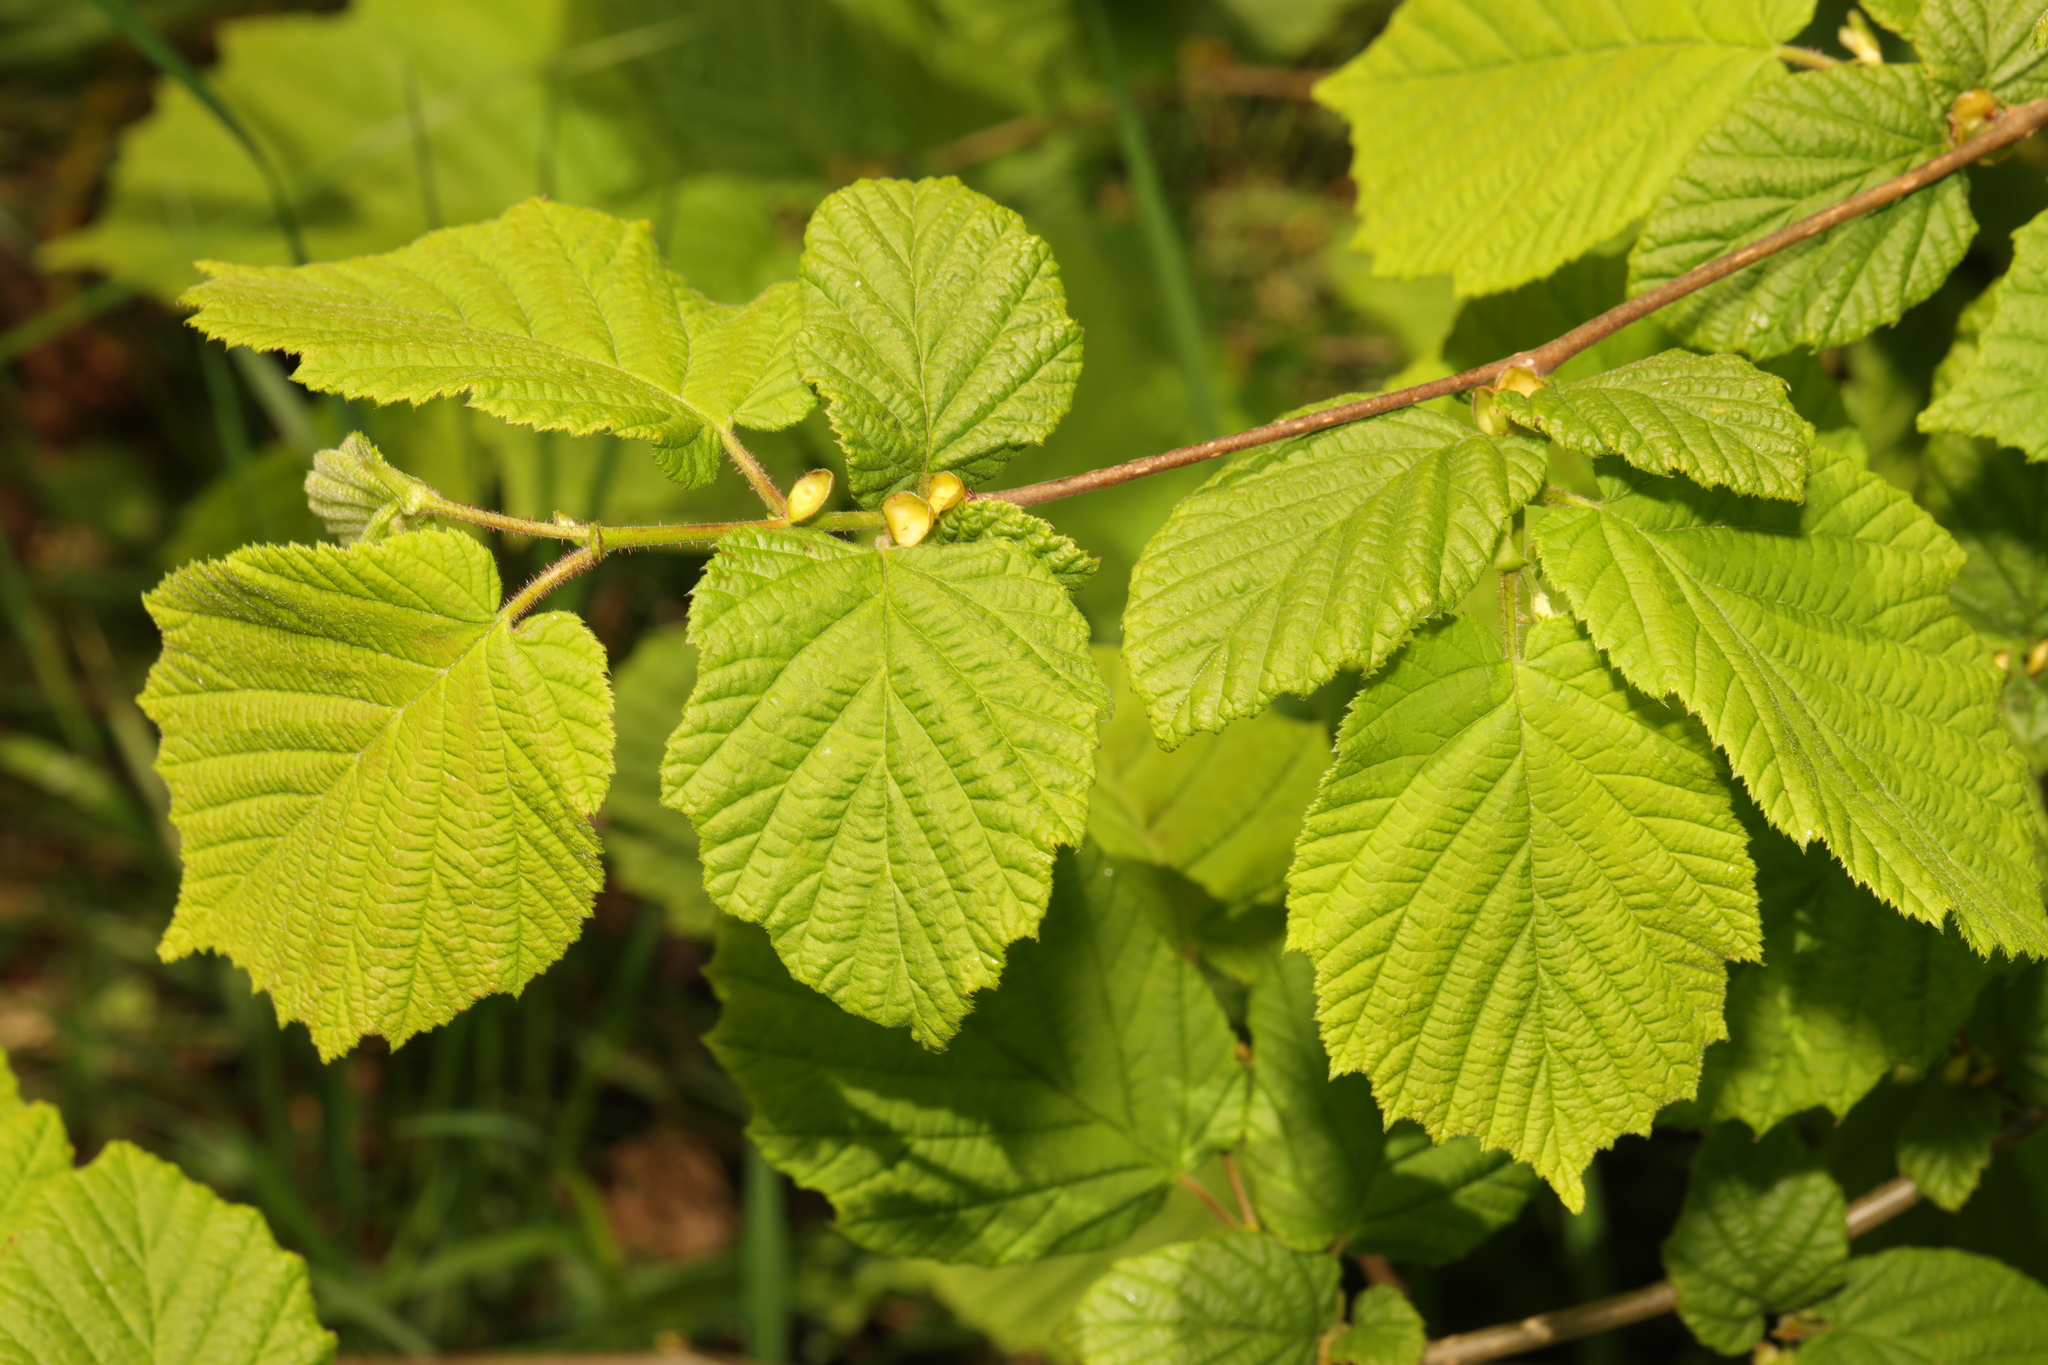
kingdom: Plantae
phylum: Tracheophyta
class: Magnoliopsida
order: Fagales
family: Betulaceae
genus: Corylus
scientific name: Corylus avellana
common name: European hazel
